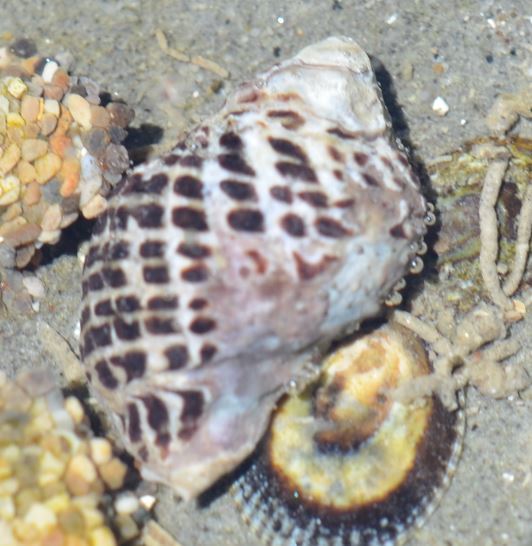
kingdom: Animalia
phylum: Mollusca
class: Gastropoda
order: Neogastropoda
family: Muricidae
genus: Acanthinucella
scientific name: Acanthinucella punctulata
